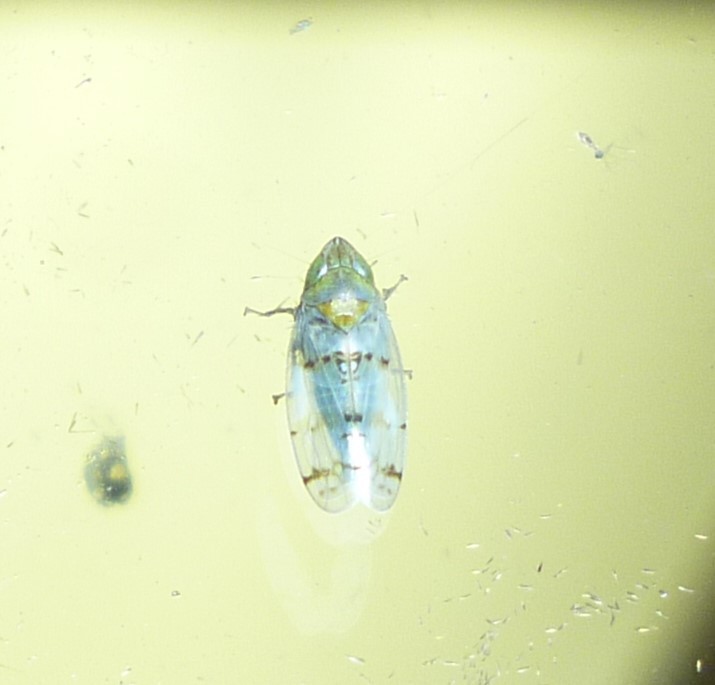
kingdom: Animalia
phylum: Arthropoda
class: Insecta
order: Hemiptera
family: Cicadellidae
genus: Japananus
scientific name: Japananus hyalinus
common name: The japanese maple leafhopper
